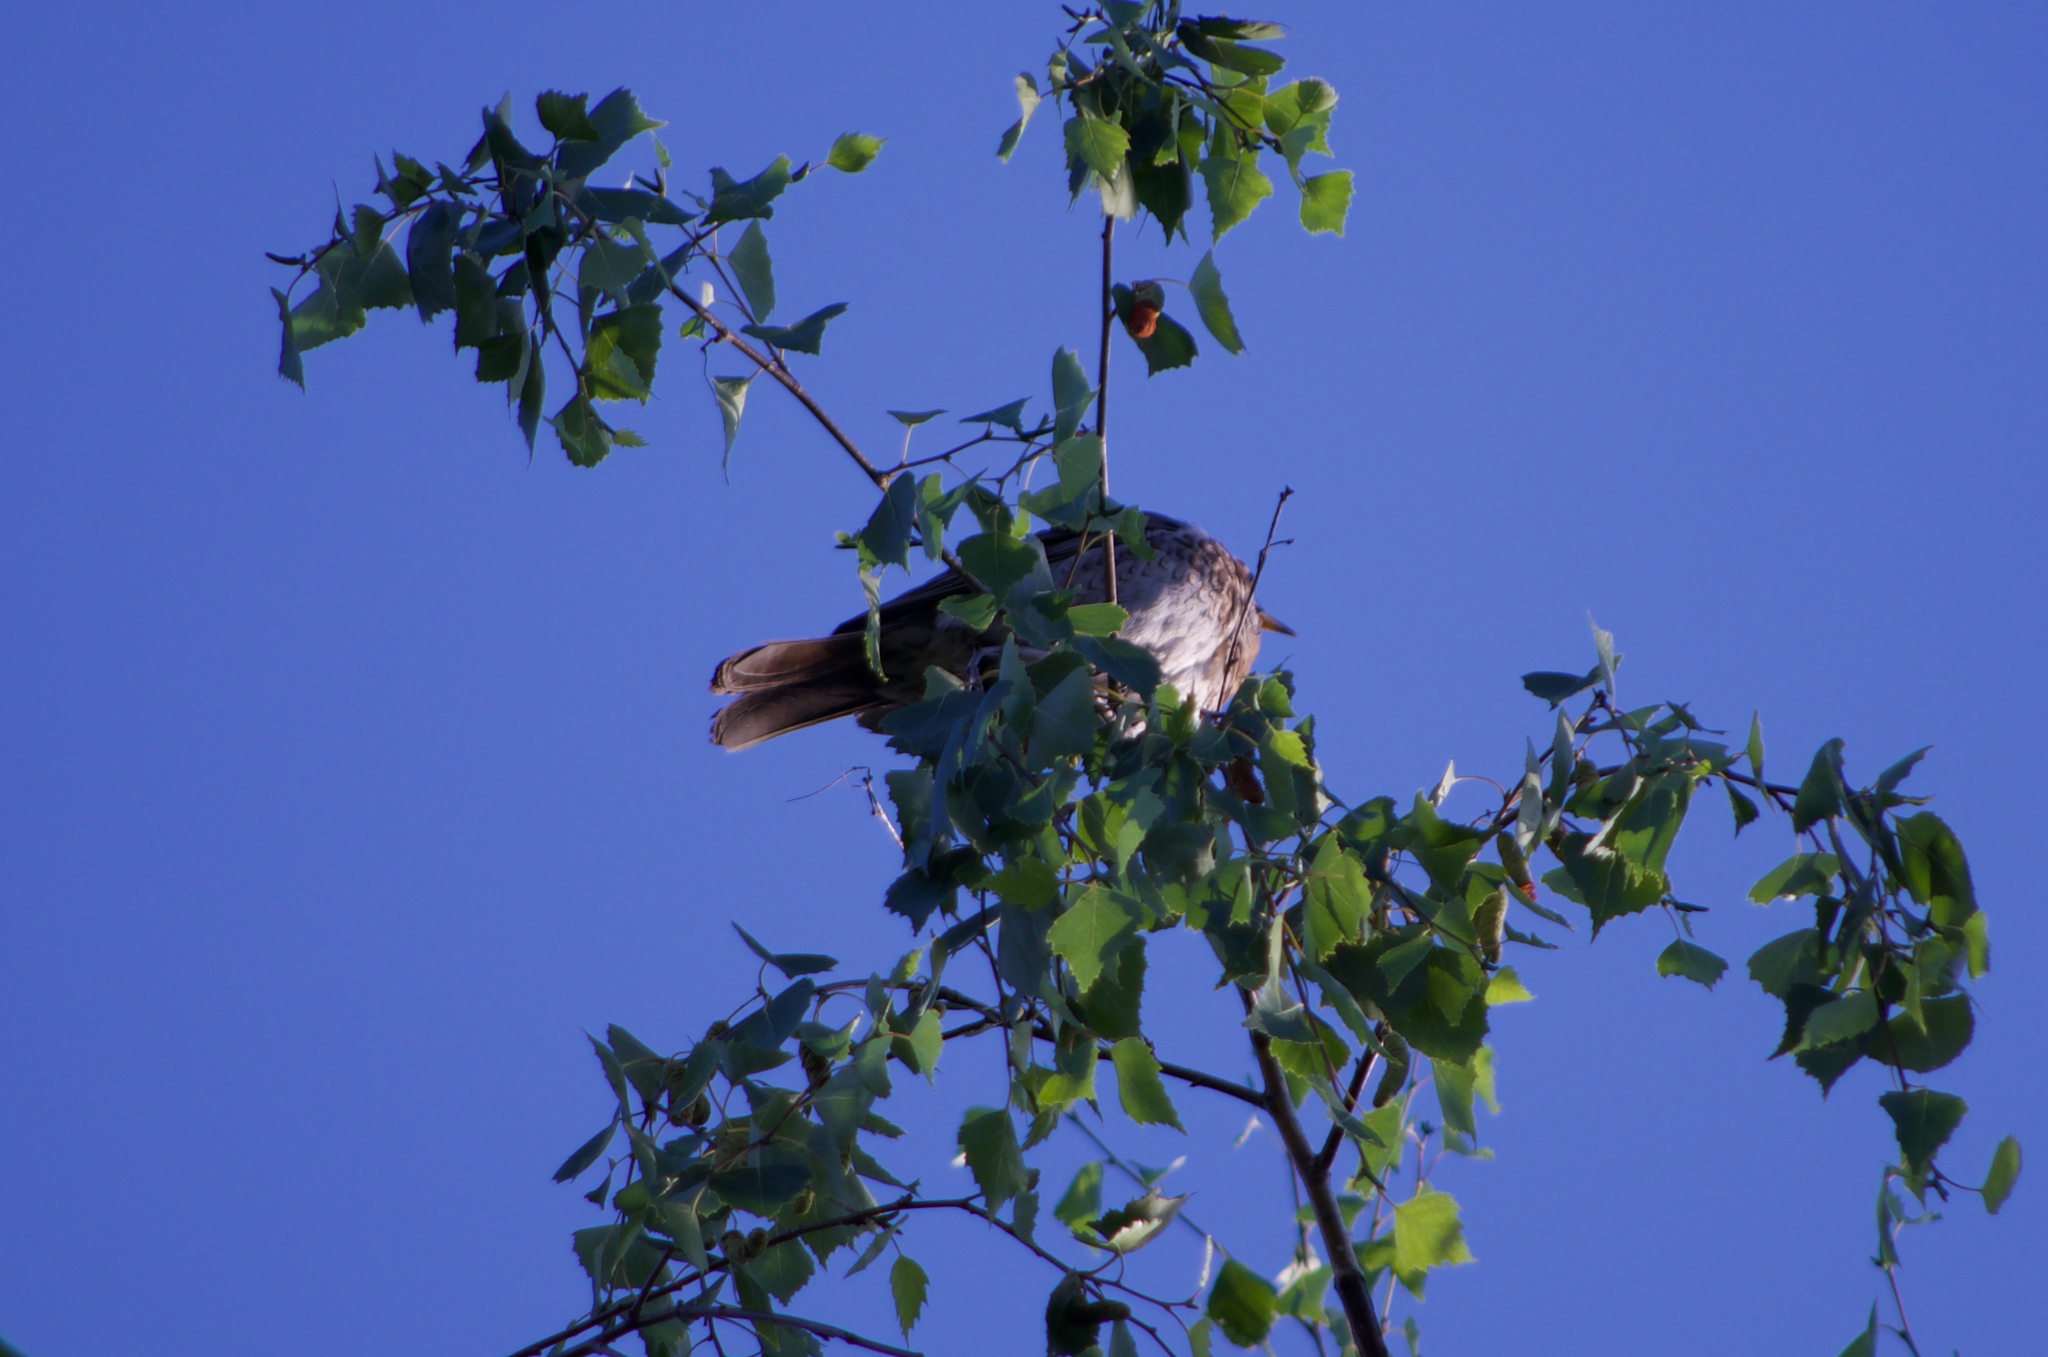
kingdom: Animalia
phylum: Chordata
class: Aves
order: Passeriformes
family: Turdidae
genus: Turdus
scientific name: Turdus pilaris
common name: Fieldfare
